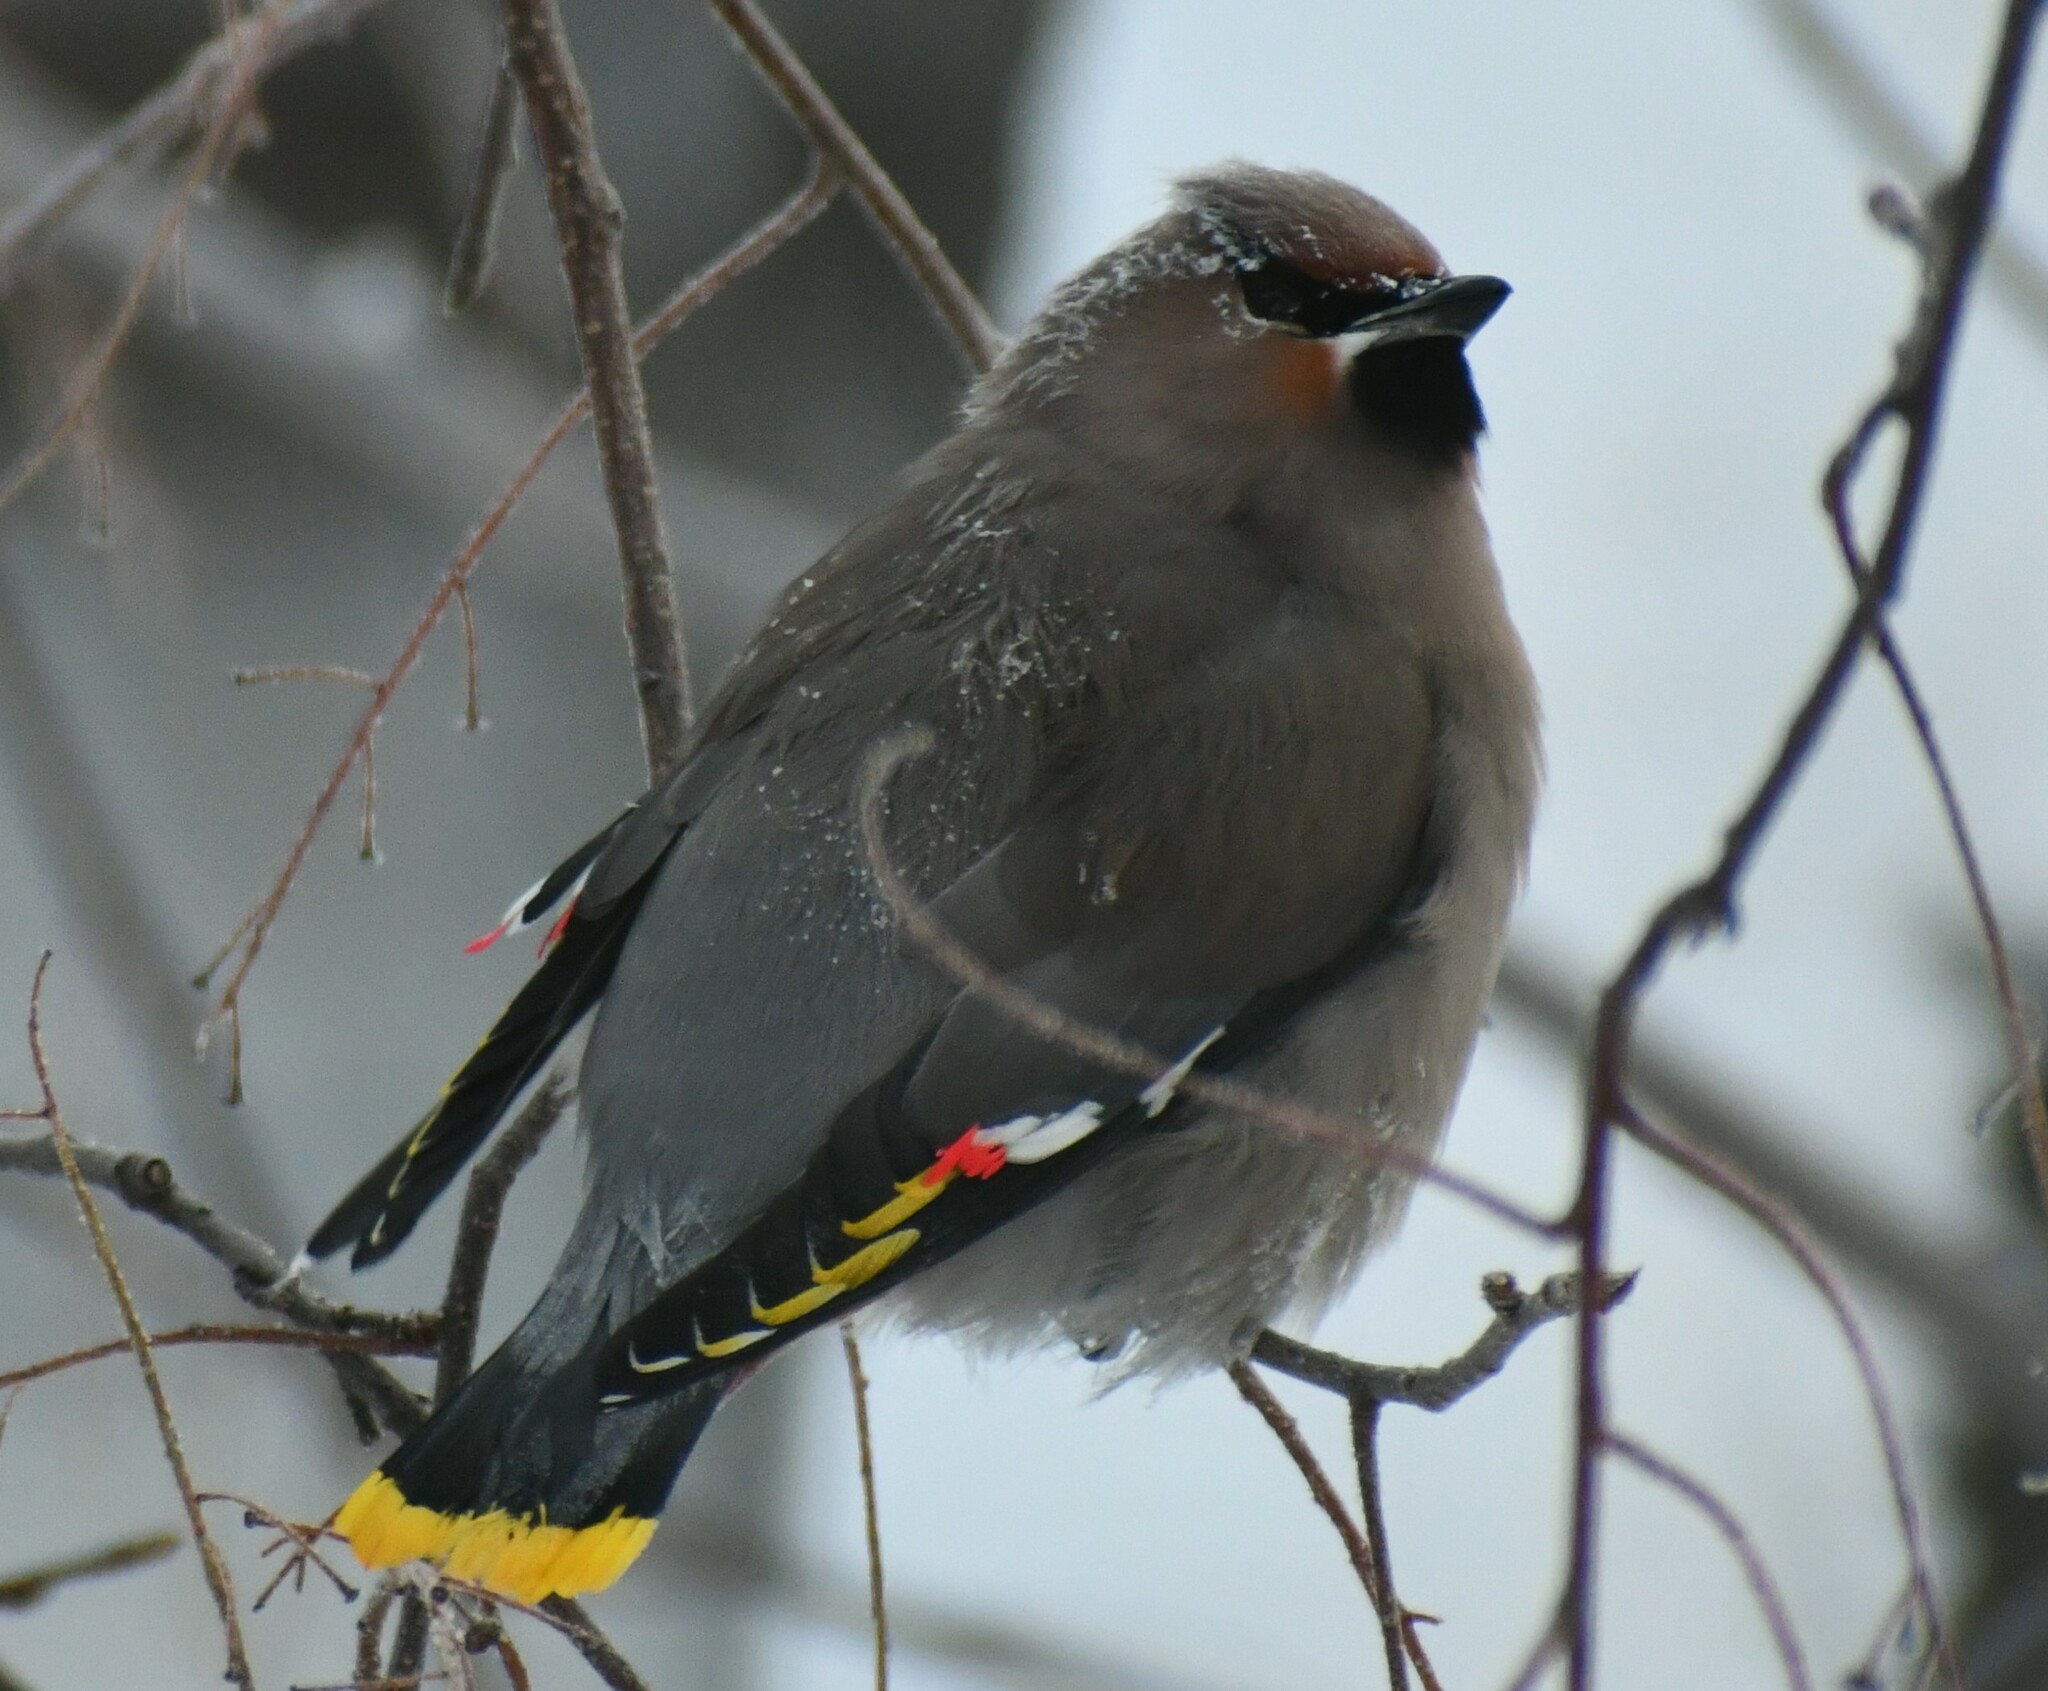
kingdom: Animalia
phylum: Chordata
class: Aves
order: Passeriformes
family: Bombycillidae
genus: Bombycilla
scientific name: Bombycilla garrulus
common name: Bohemian waxwing
